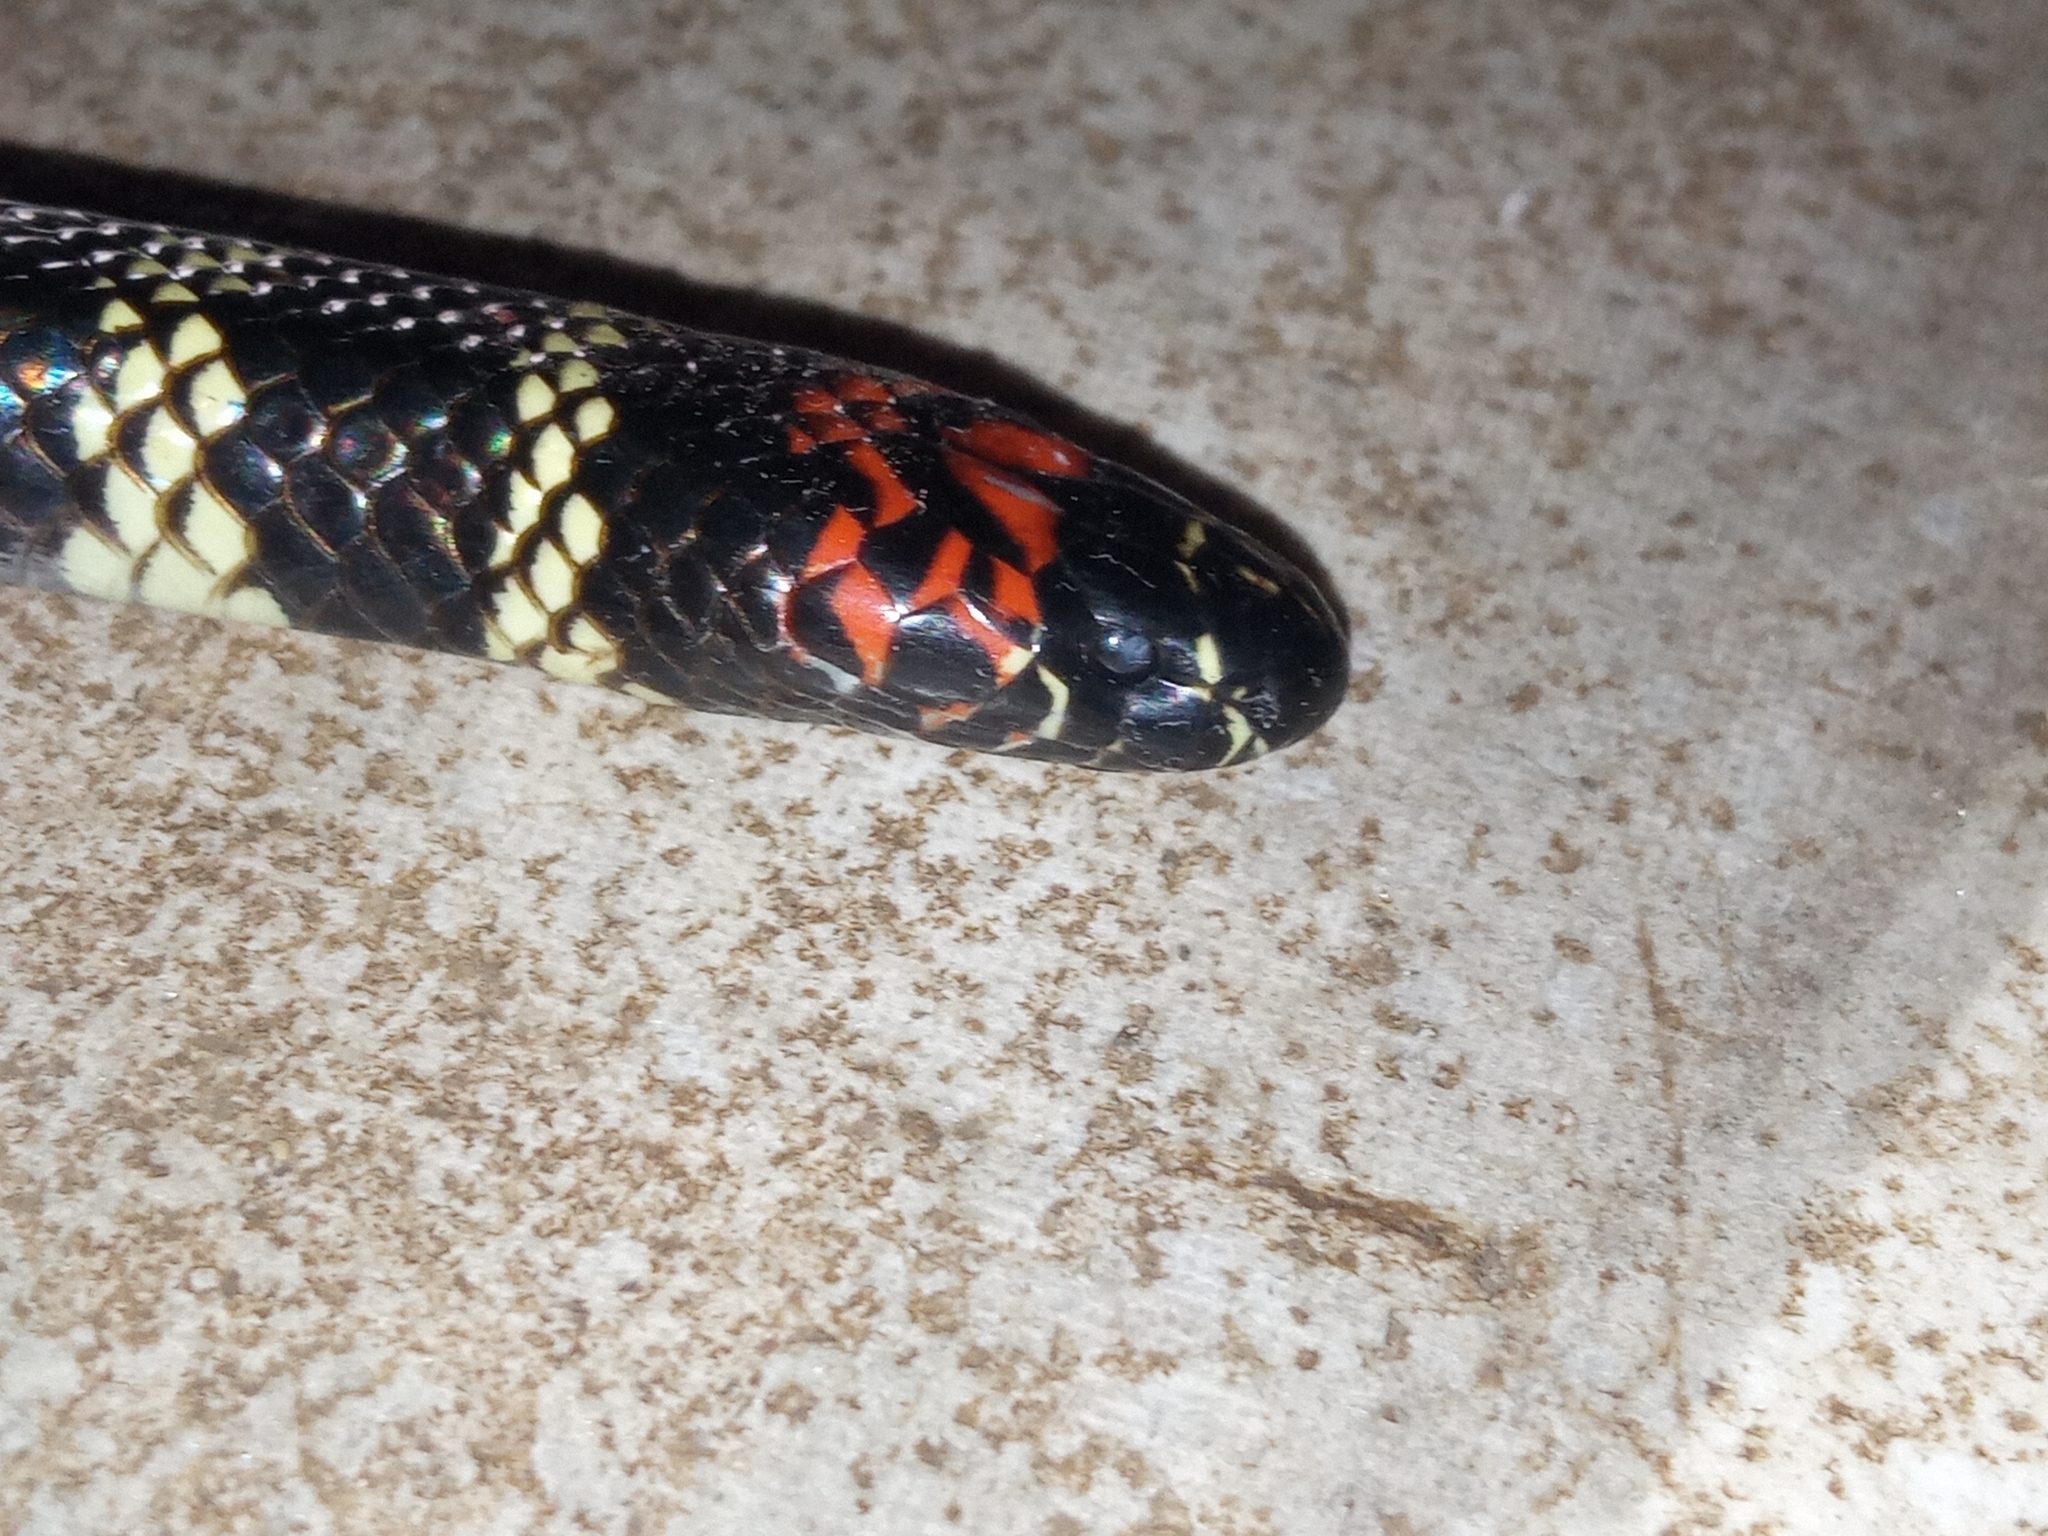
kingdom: Animalia
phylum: Chordata
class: Squamata
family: Elapidae
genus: Micrurus
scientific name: Micrurus altirostris
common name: Uruguayan coral snake
